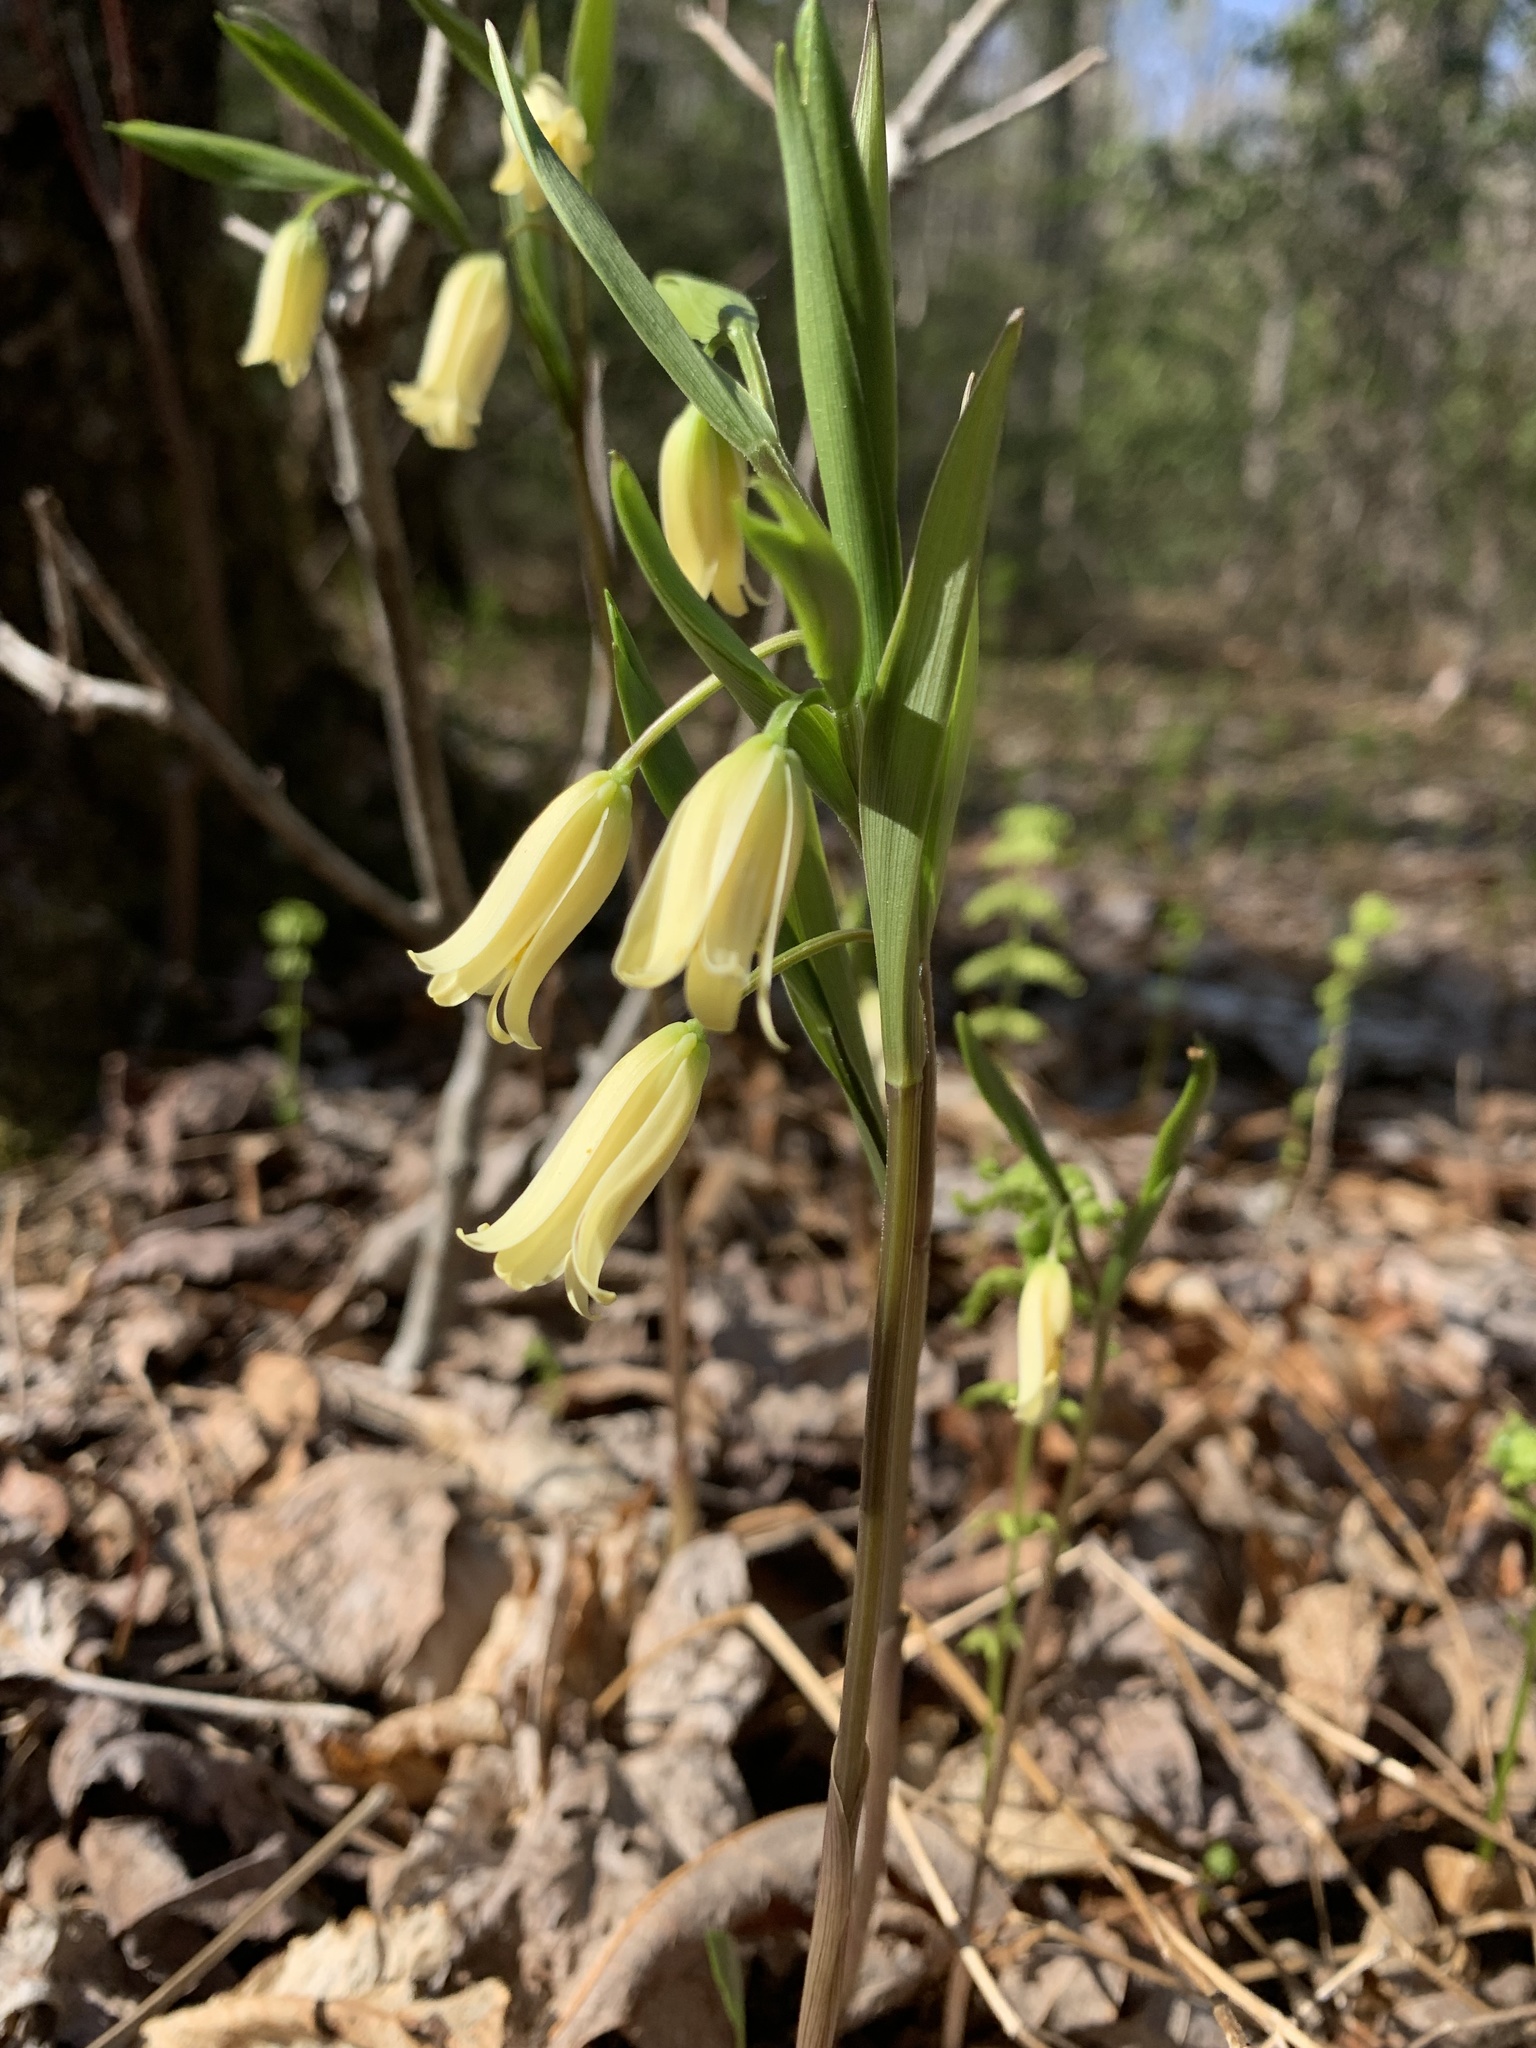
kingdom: Plantae
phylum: Tracheophyta
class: Liliopsida
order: Liliales
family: Colchicaceae
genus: Uvularia
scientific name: Uvularia puberula
